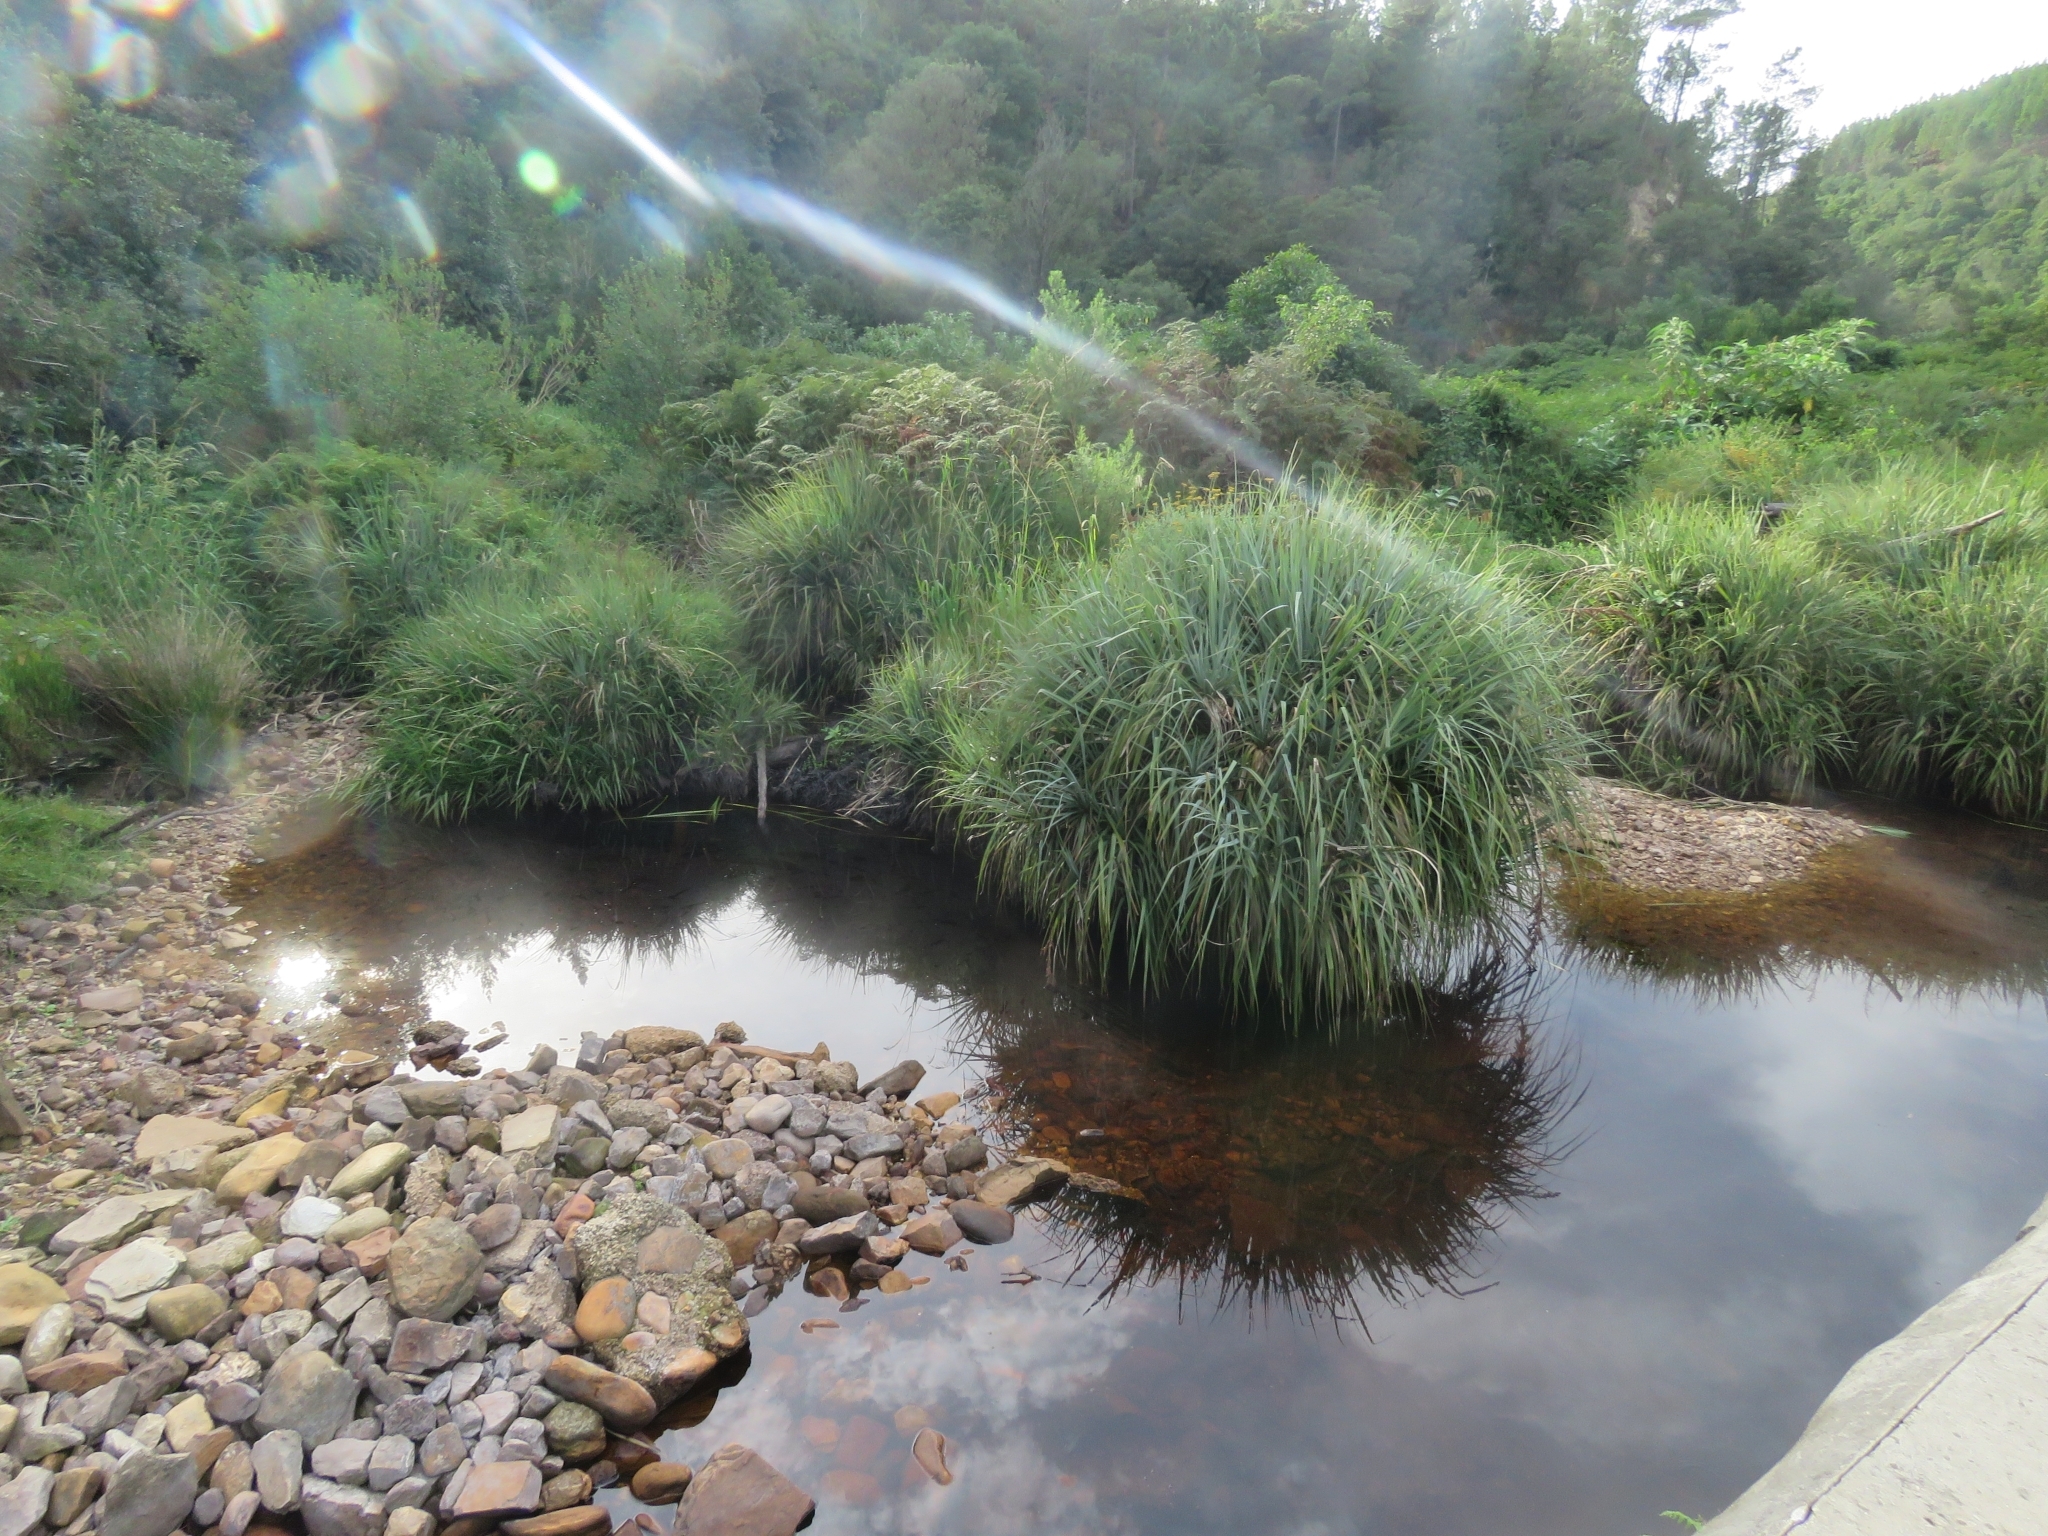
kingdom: Plantae
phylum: Tracheophyta
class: Liliopsida
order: Poales
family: Thurniaceae
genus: Prionium
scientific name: Prionium serratum
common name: Palmiet
